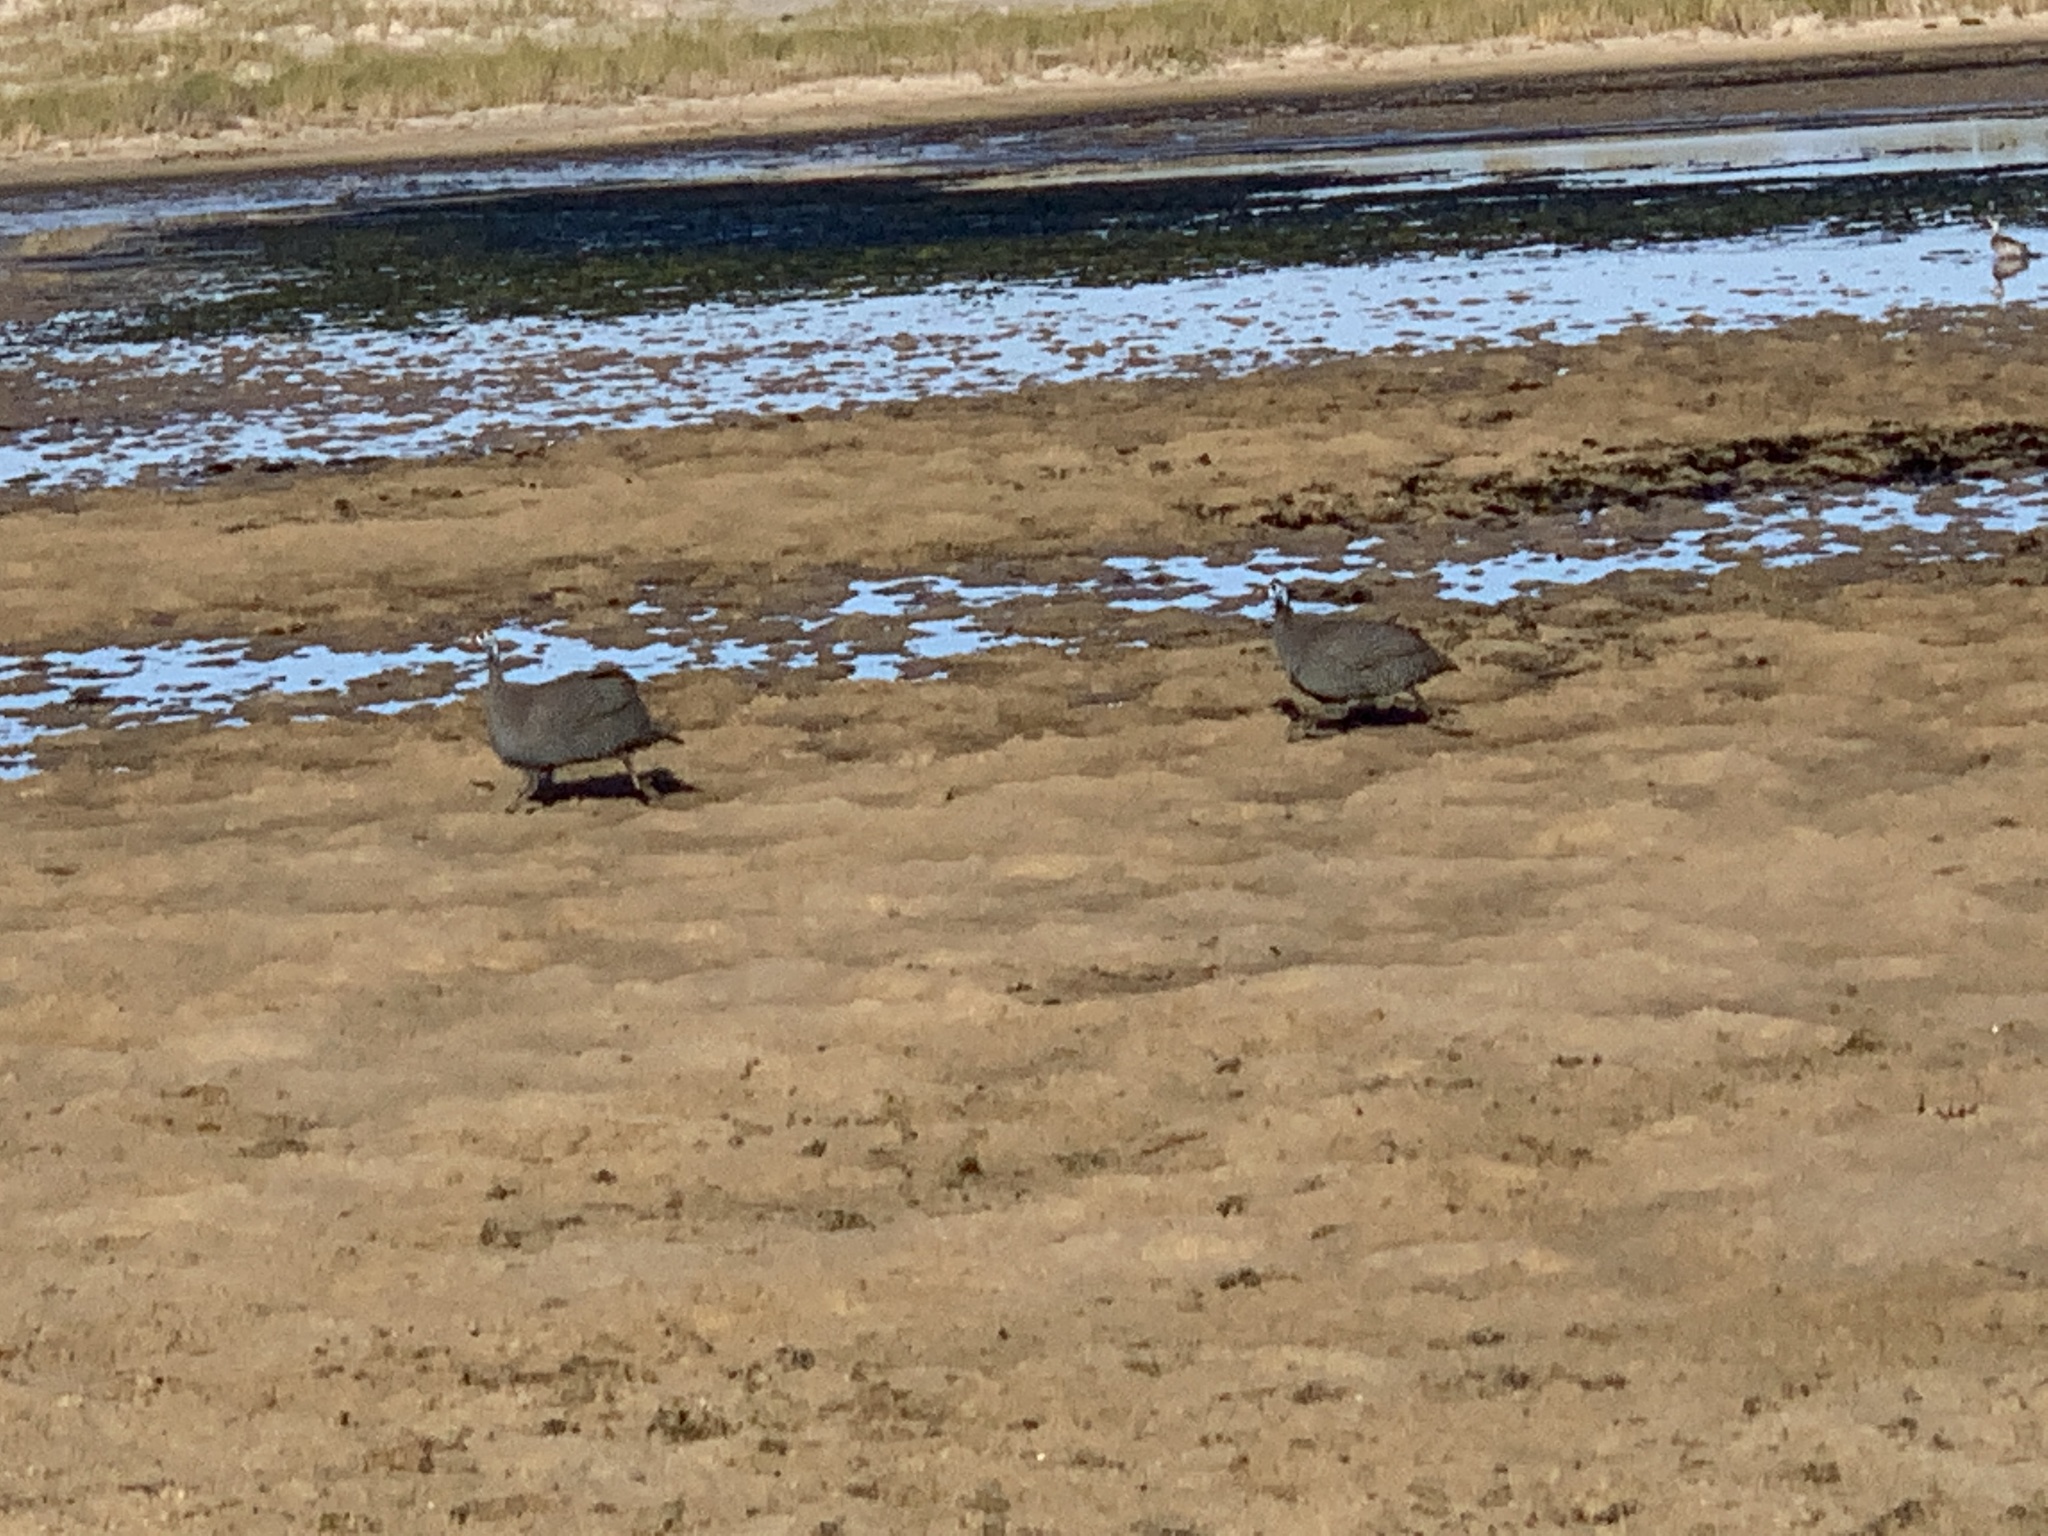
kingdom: Animalia
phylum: Chordata
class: Aves
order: Galliformes
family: Numididae
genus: Numida
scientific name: Numida meleagris
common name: Helmeted guineafowl
